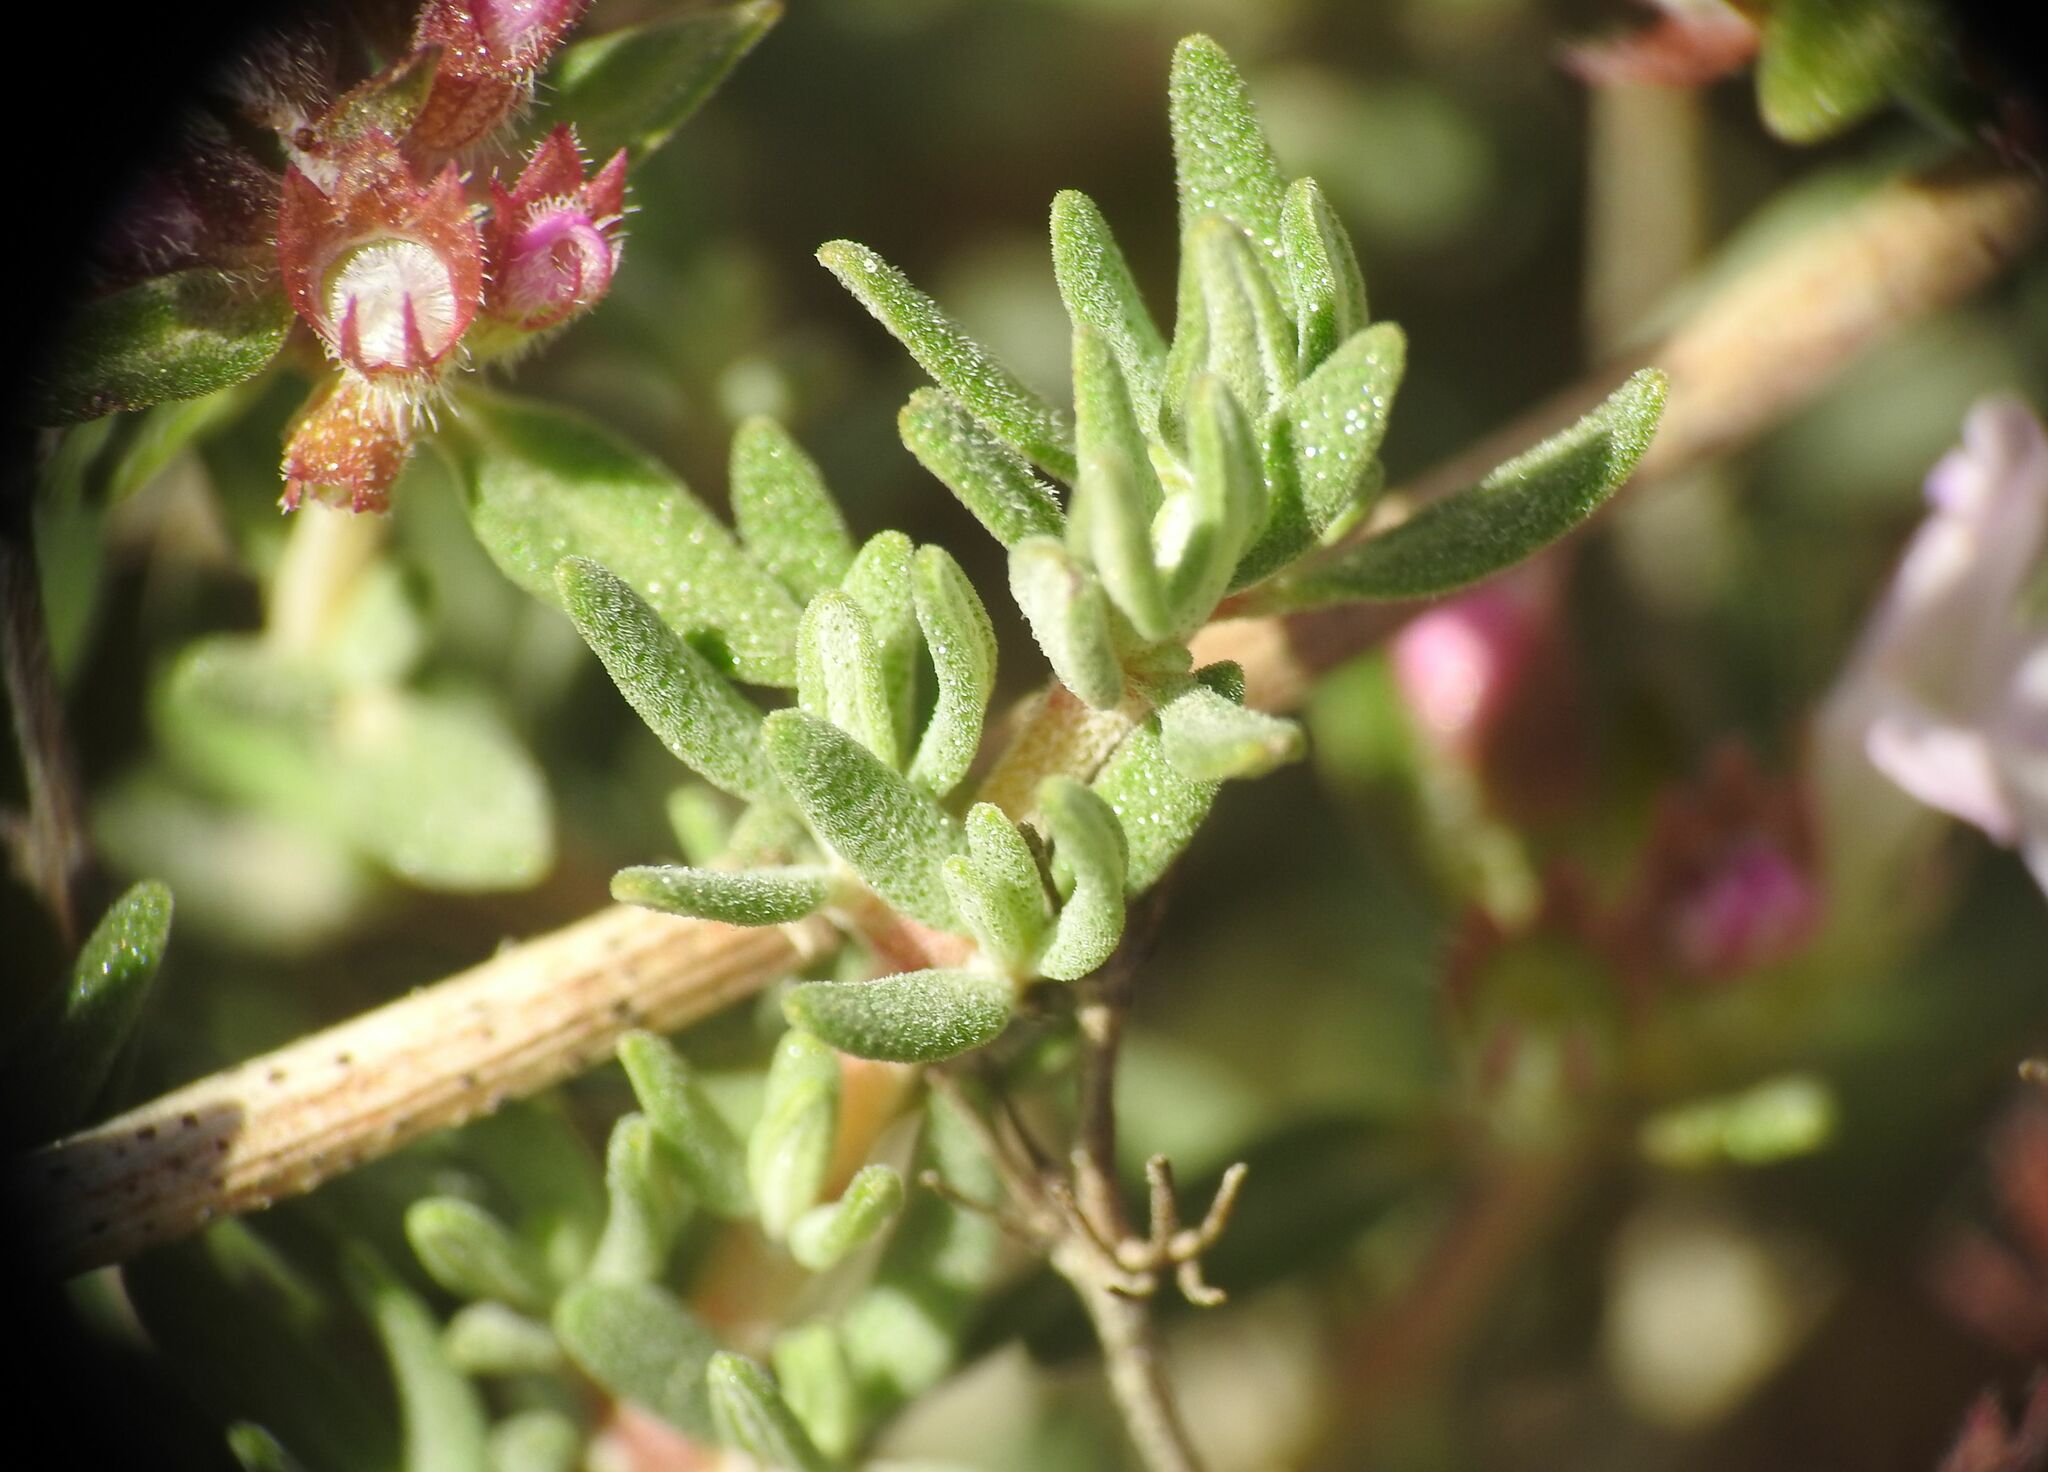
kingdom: Plantae
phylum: Tracheophyta
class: Magnoliopsida
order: Lamiales
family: Lamiaceae
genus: Thymus
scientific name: Thymus vulgaris
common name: Garden thyme
